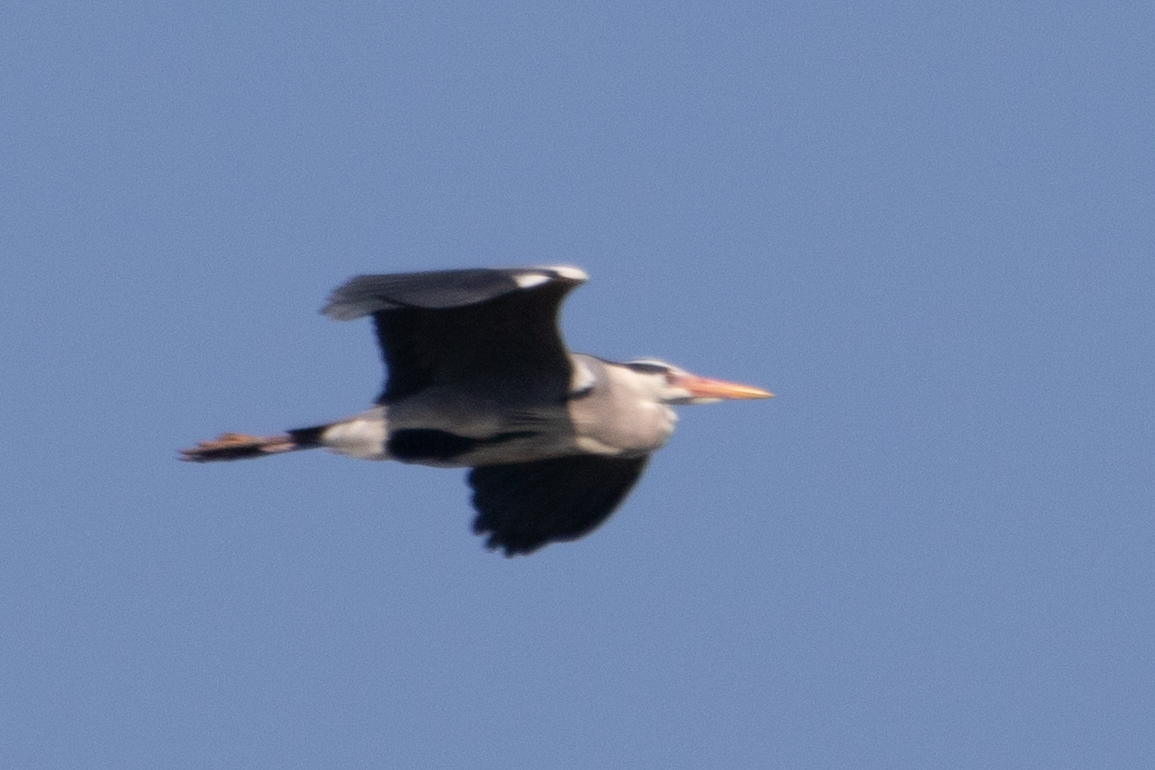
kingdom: Animalia
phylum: Chordata
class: Aves
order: Pelecaniformes
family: Ardeidae
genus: Ardea
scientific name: Ardea cinerea
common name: Grey heron
